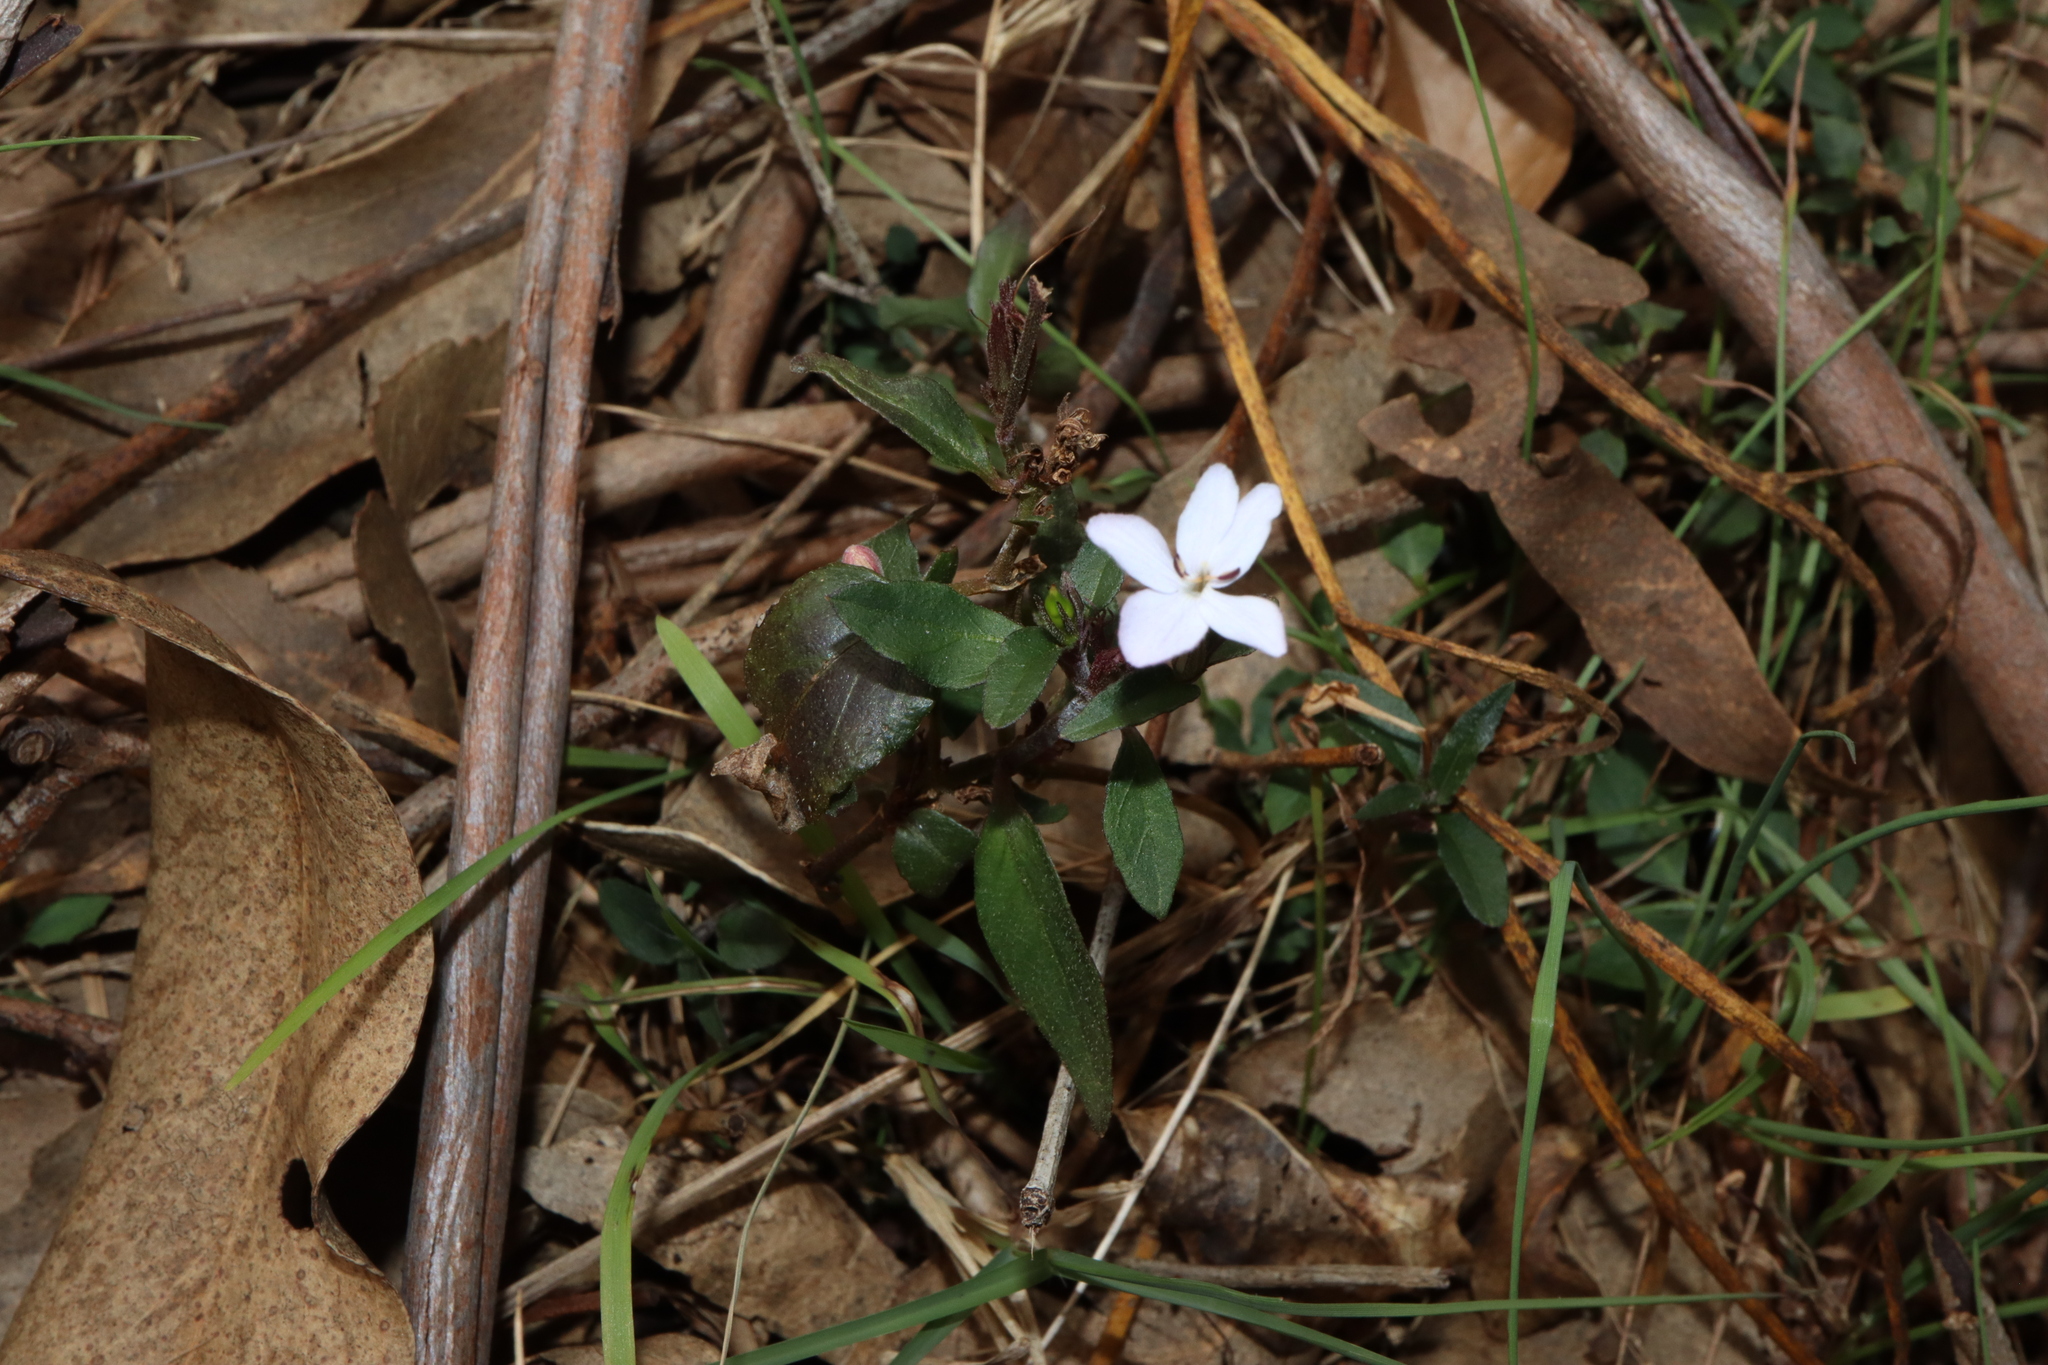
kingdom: Plantae
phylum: Tracheophyta
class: Magnoliopsida
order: Lamiales
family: Acanthaceae
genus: Pseuderanthemum
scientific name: Pseuderanthemum variabile
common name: Night and afternoon
